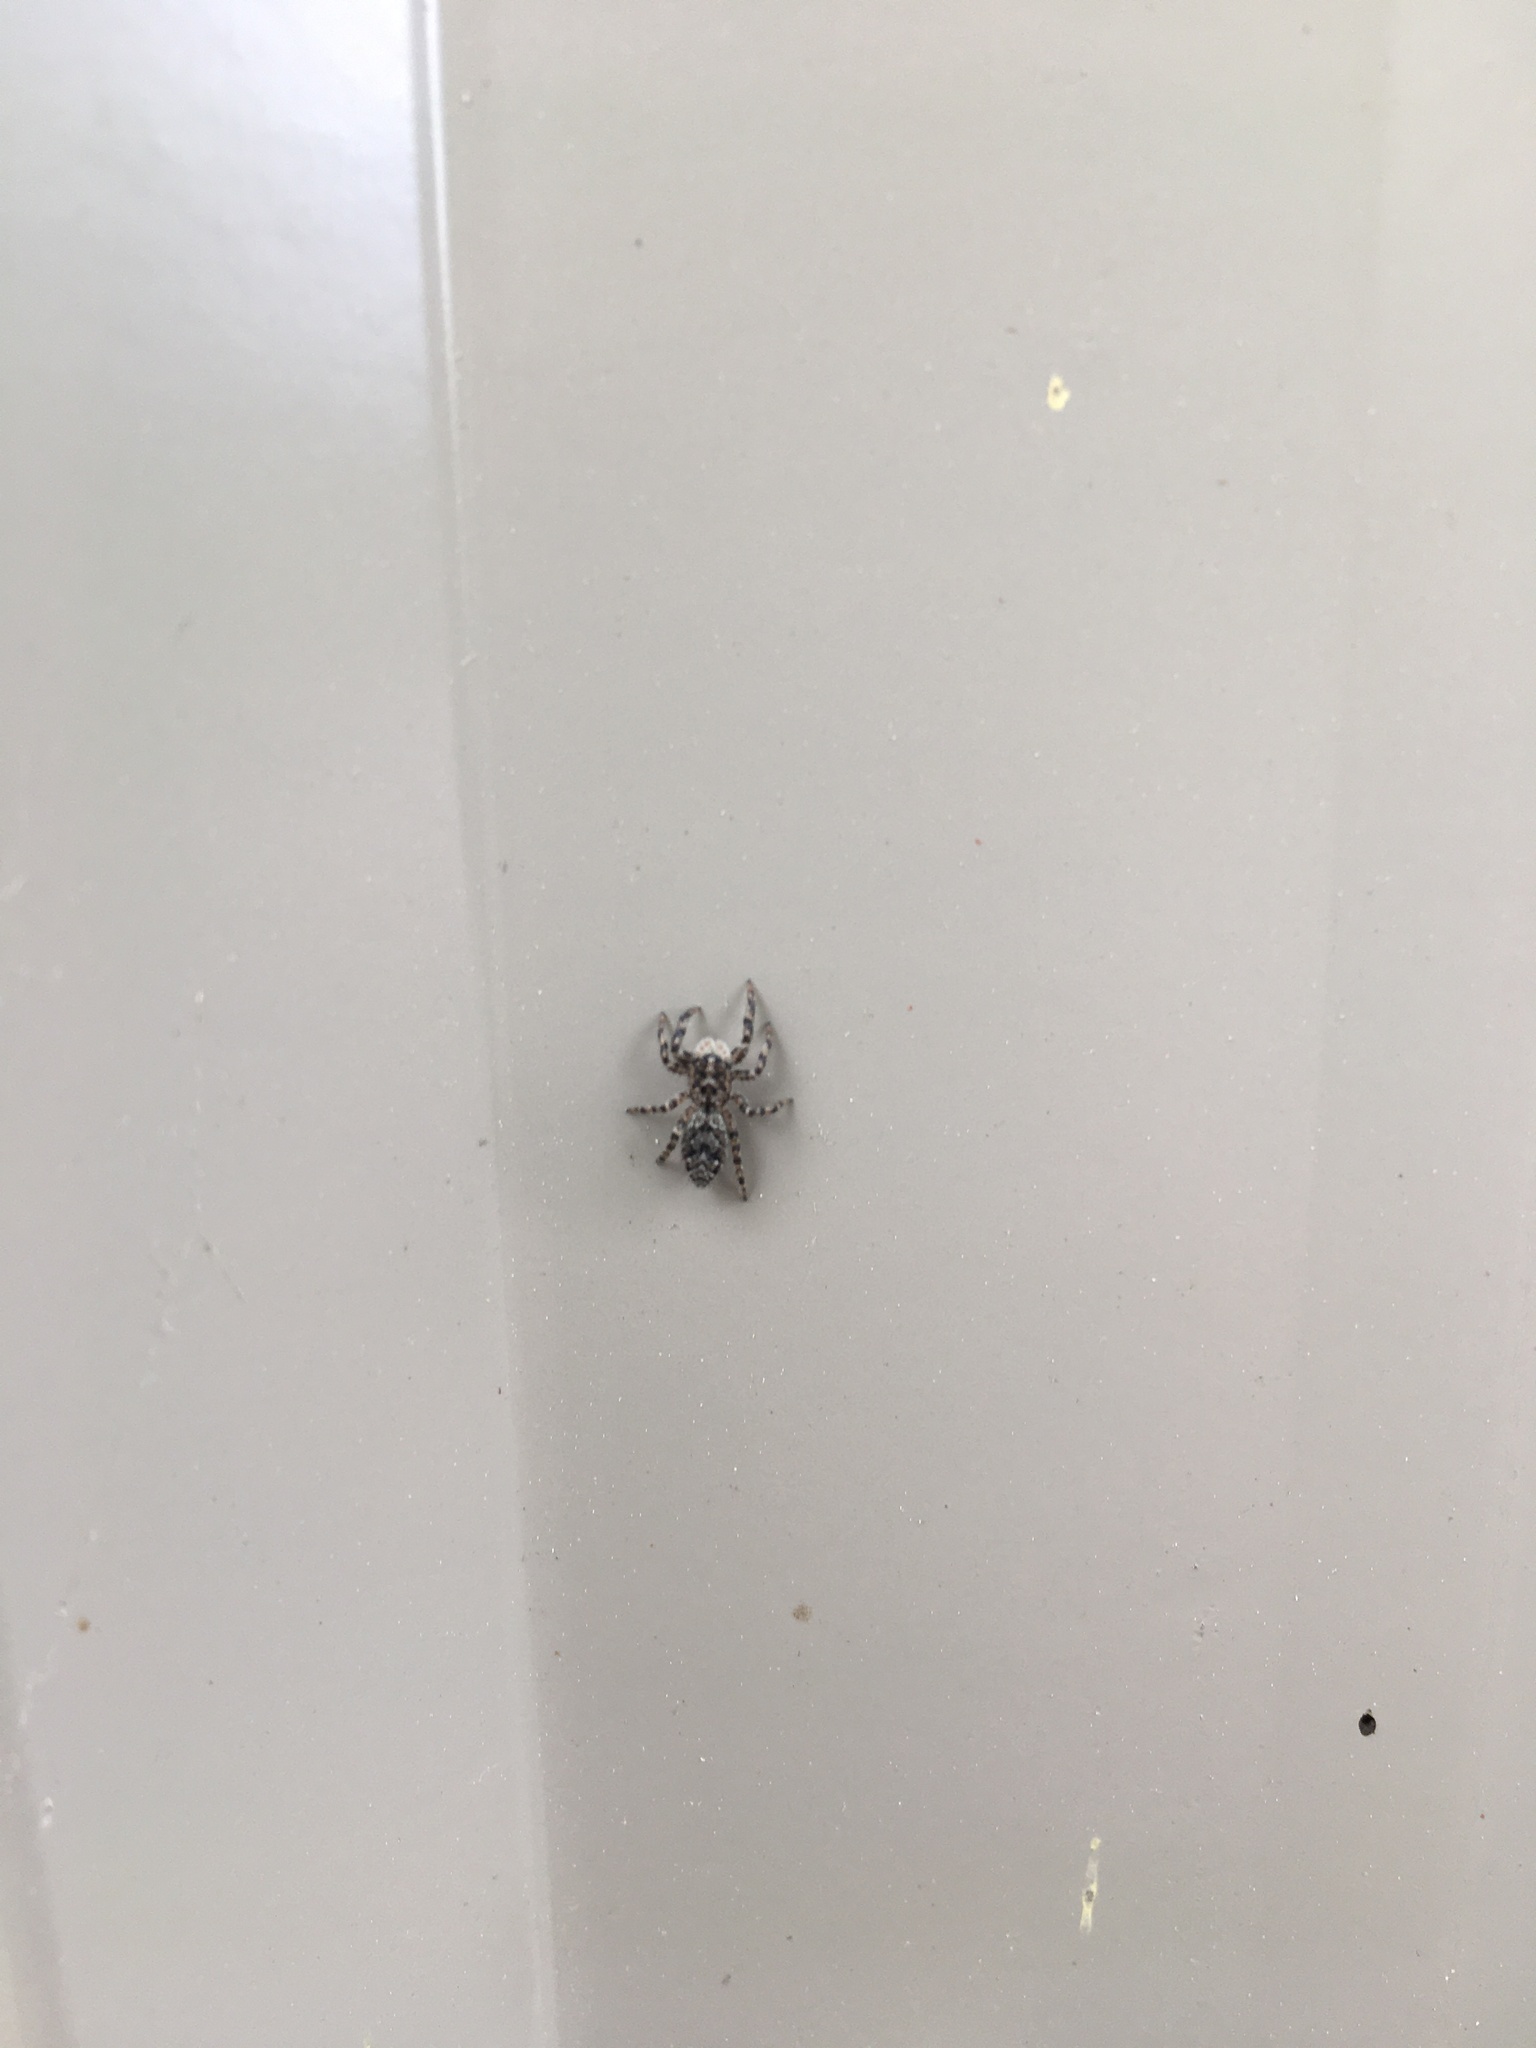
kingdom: Animalia
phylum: Arthropoda
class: Arachnida
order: Araneae
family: Salticidae
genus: Platycryptus
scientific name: Platycryptus undatus
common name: Tan jumping spider
